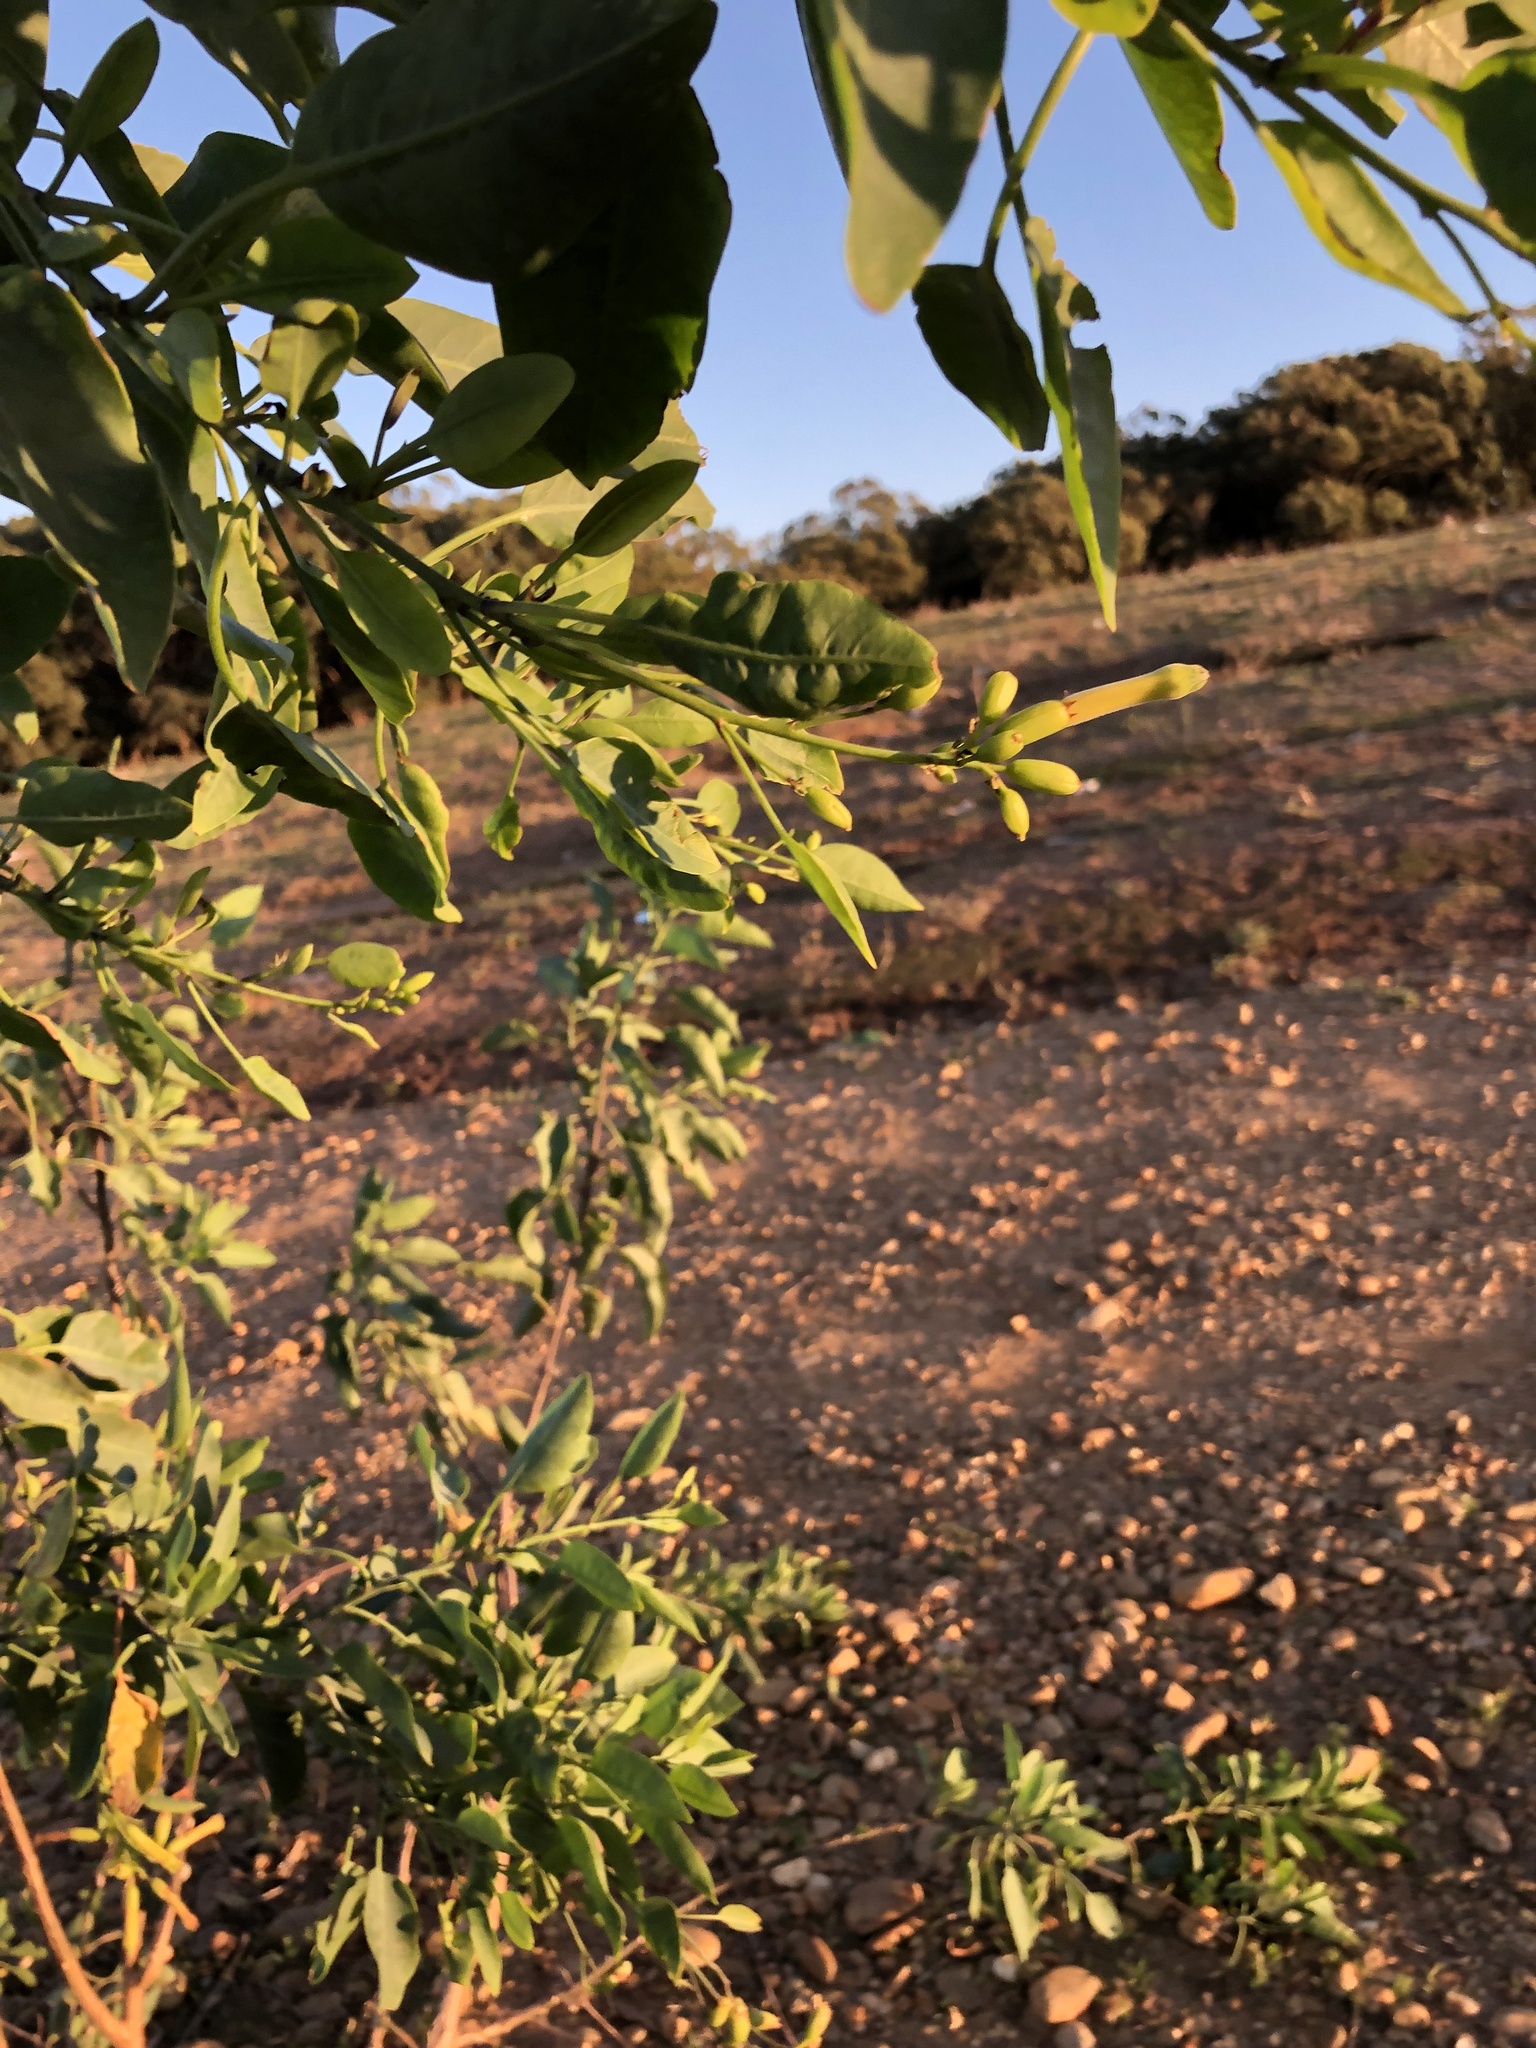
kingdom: Plantae
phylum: Tracheophyta
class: Magnoliopsida
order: Solanales
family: Solanaceae
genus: Nicotiana
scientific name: Nicotiana glauca
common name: Tree tobacco
